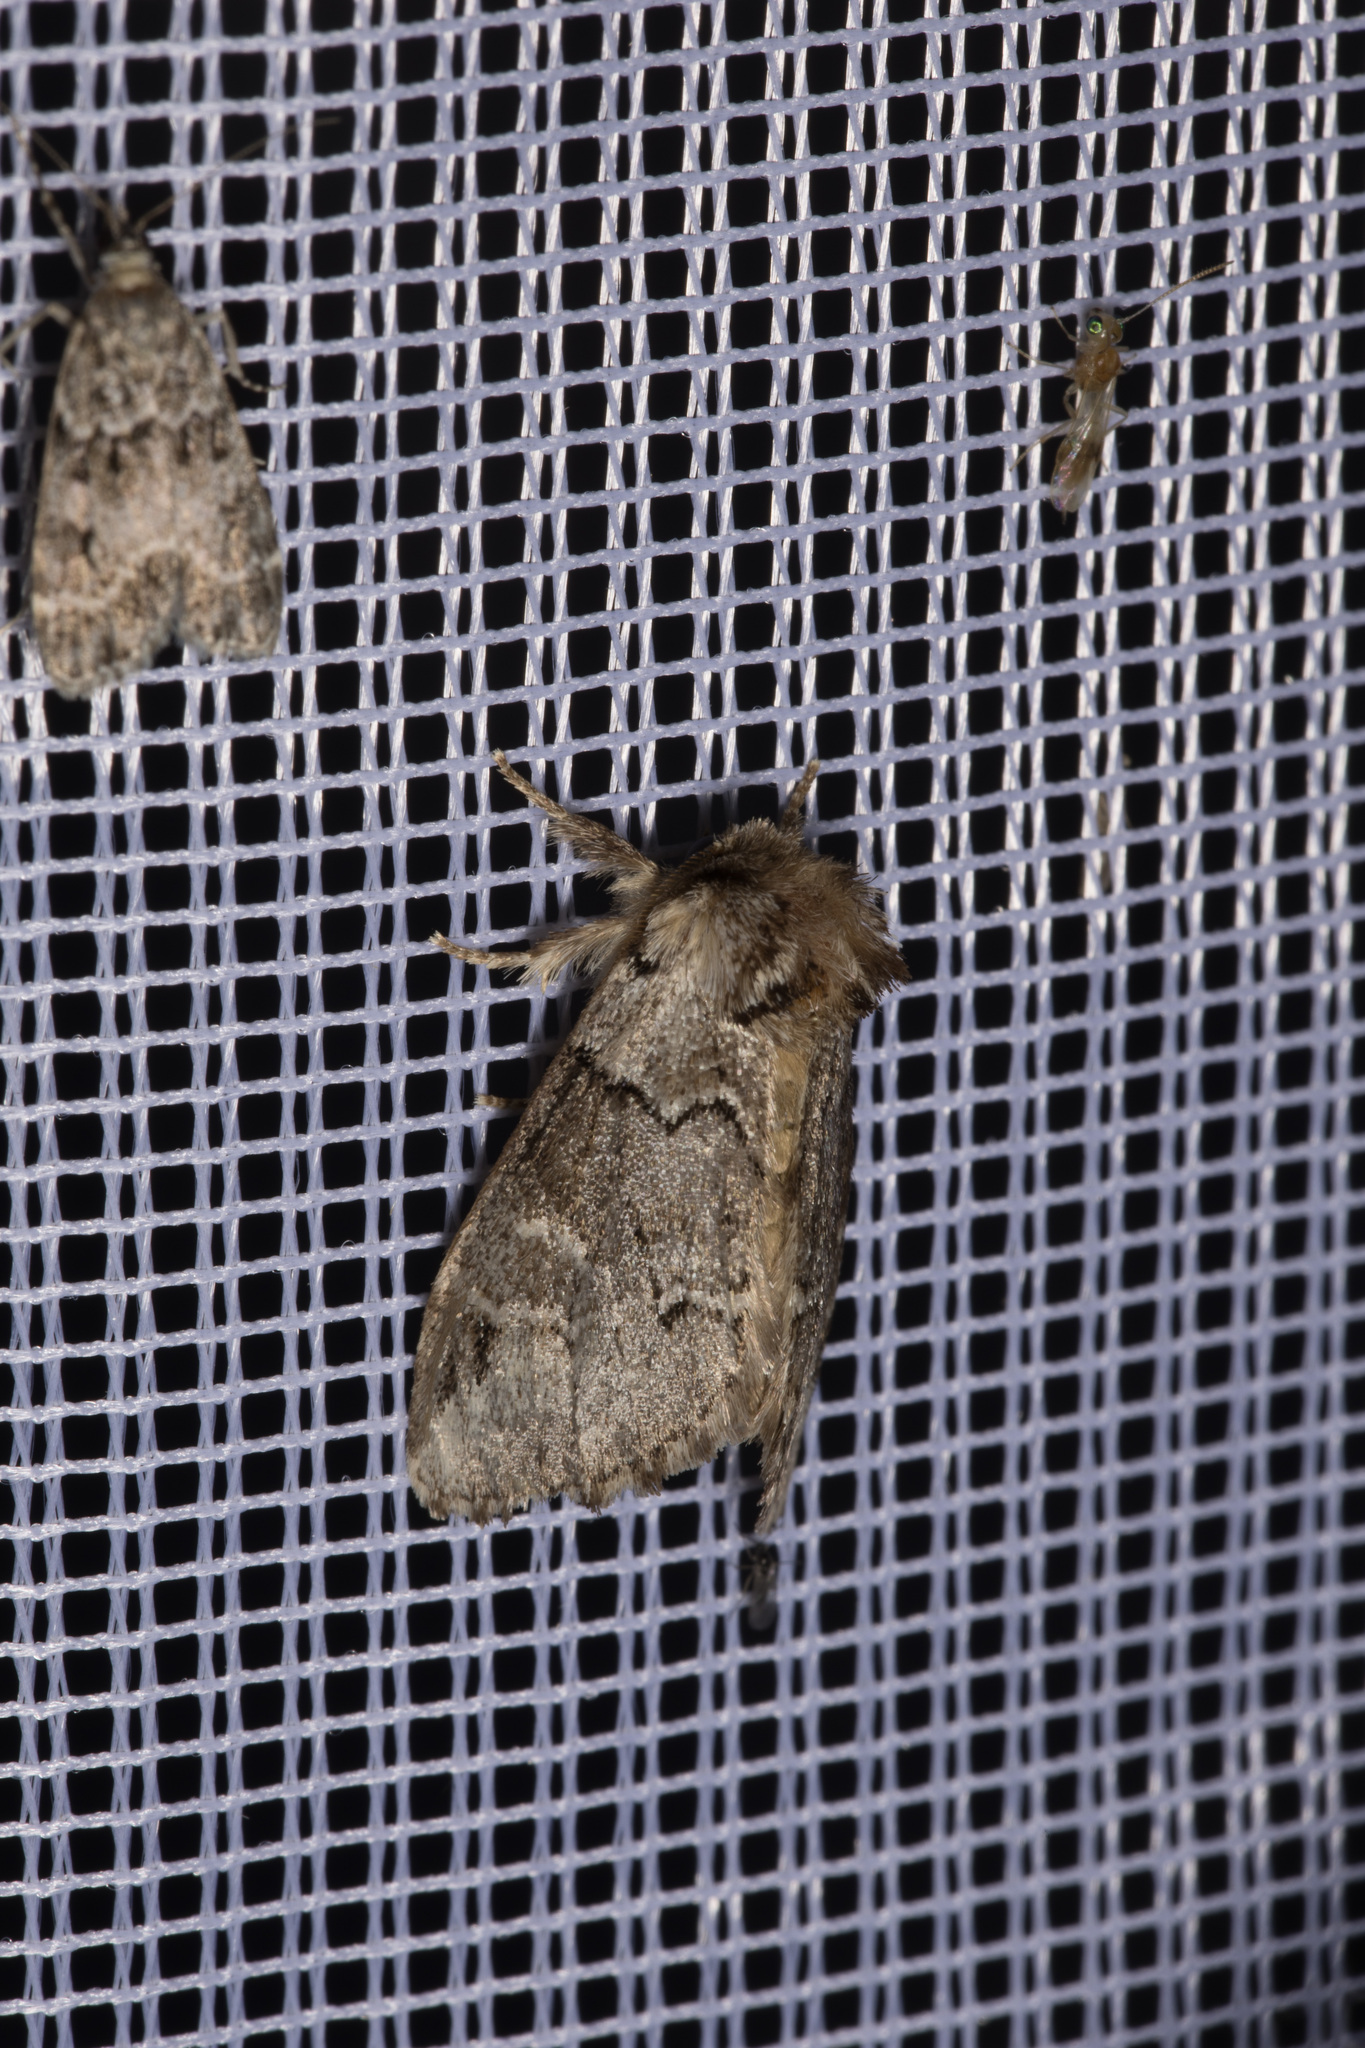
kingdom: Animalia
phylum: Arthropoda
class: Insecta
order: Lepidoptera
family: Notodontidae
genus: Drymonia
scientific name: Drymonia obliterata
